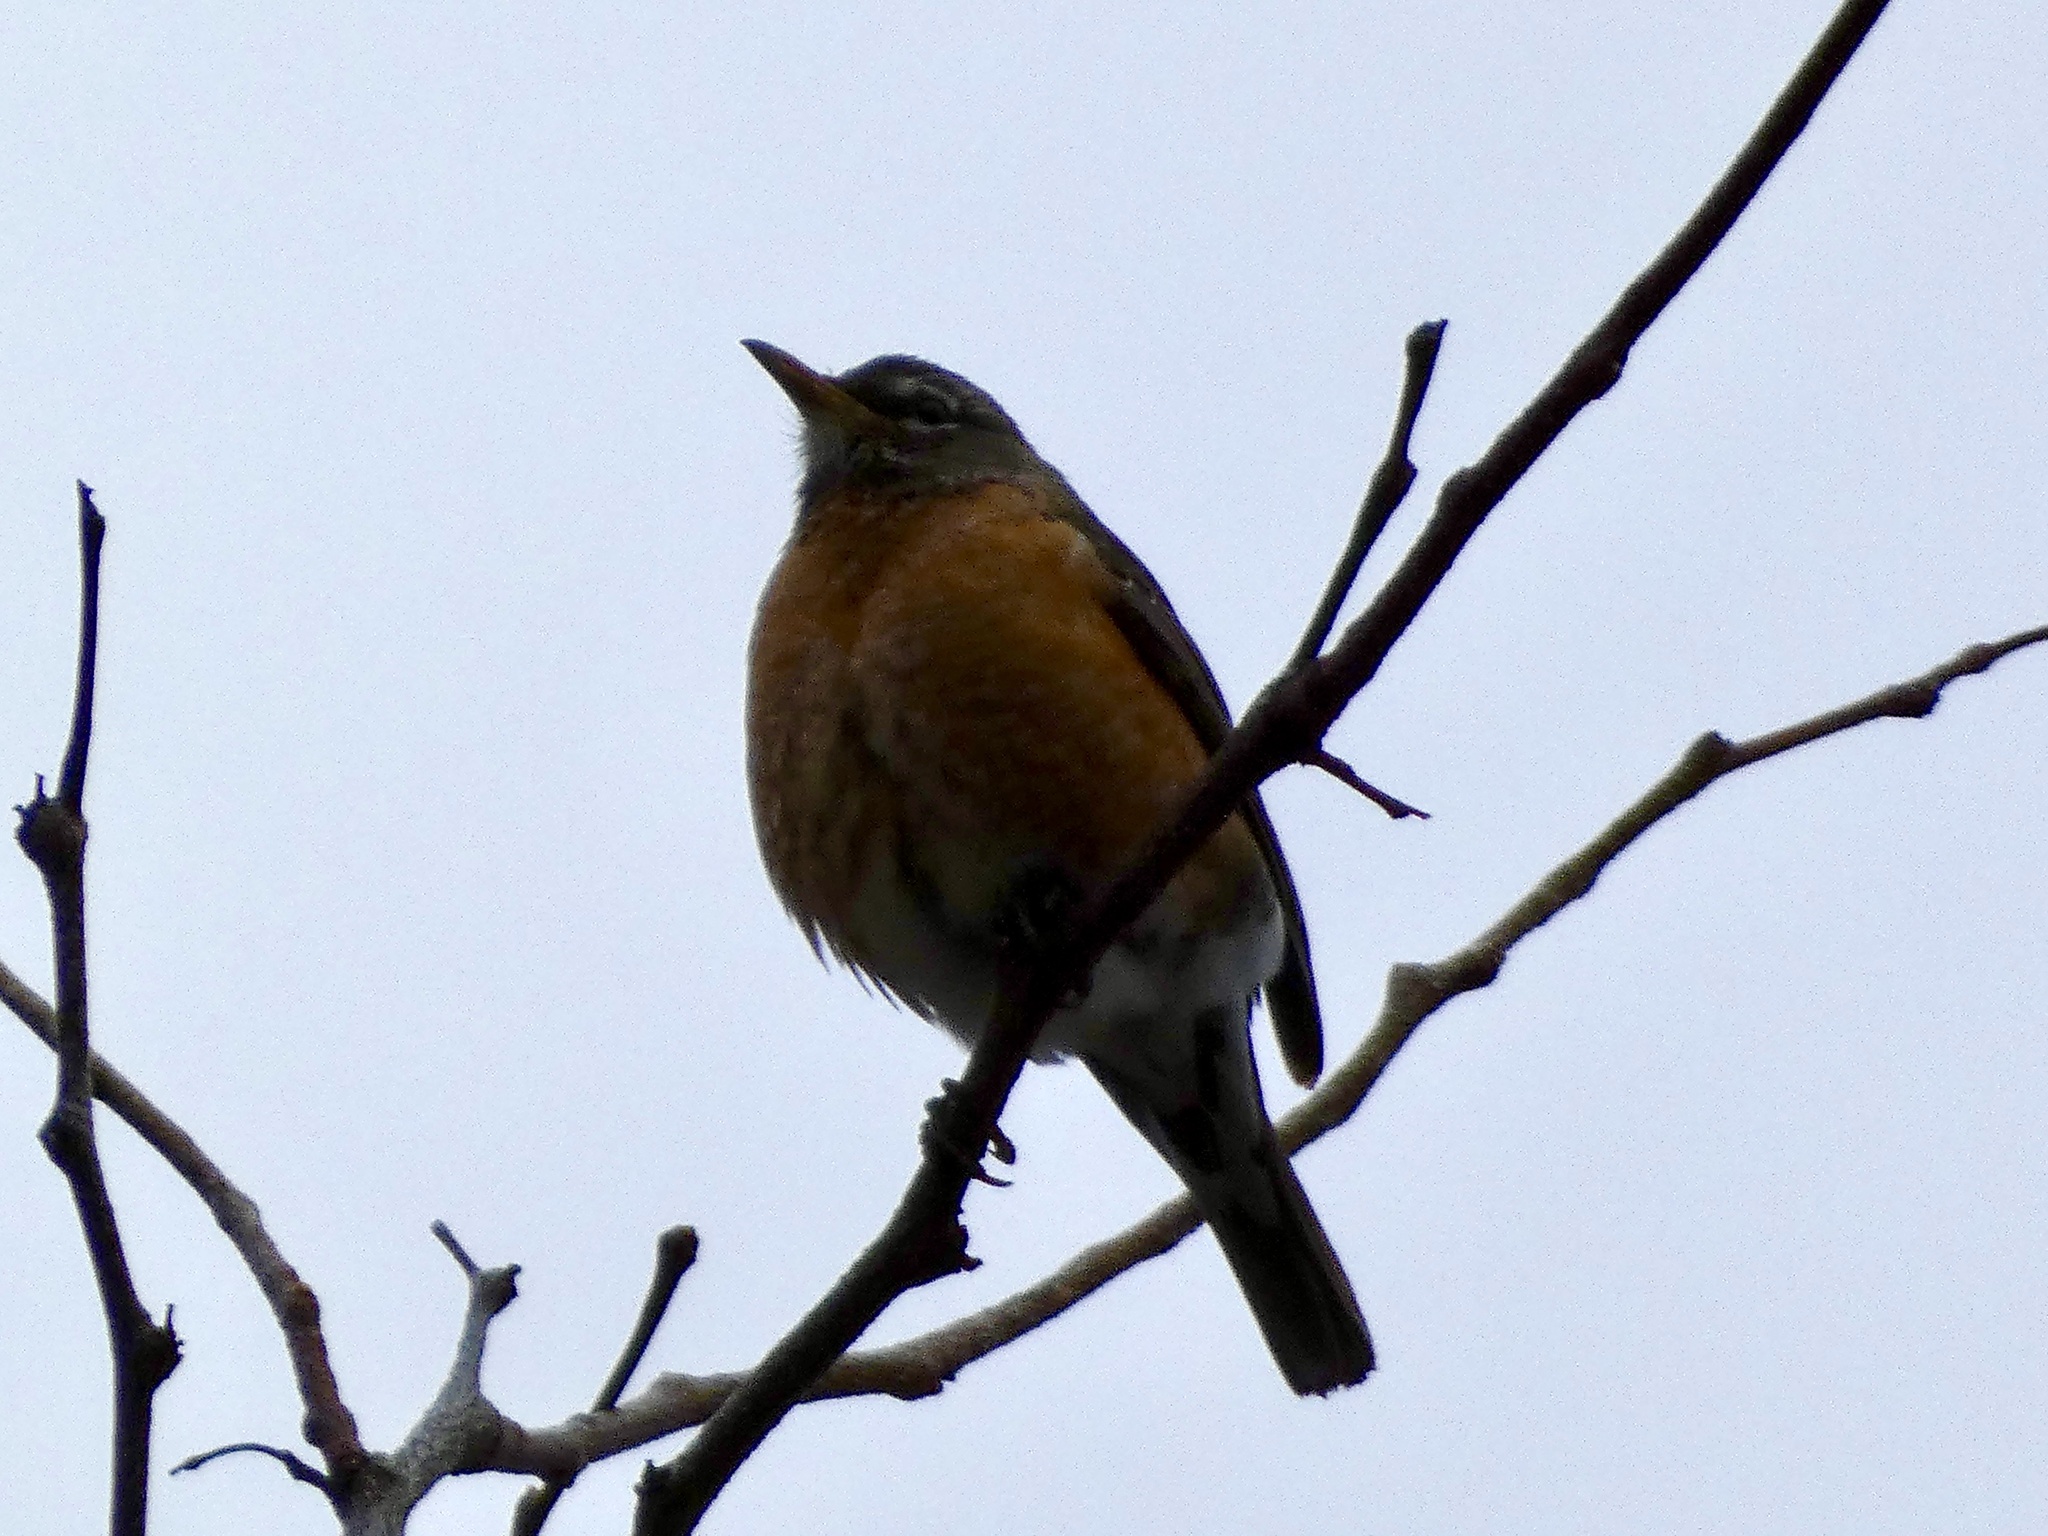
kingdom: Animalia
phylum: Chordata
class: Aves
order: Passeriformes
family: Turdidae
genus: Turdus
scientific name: Turdus migratorius
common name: American robin
